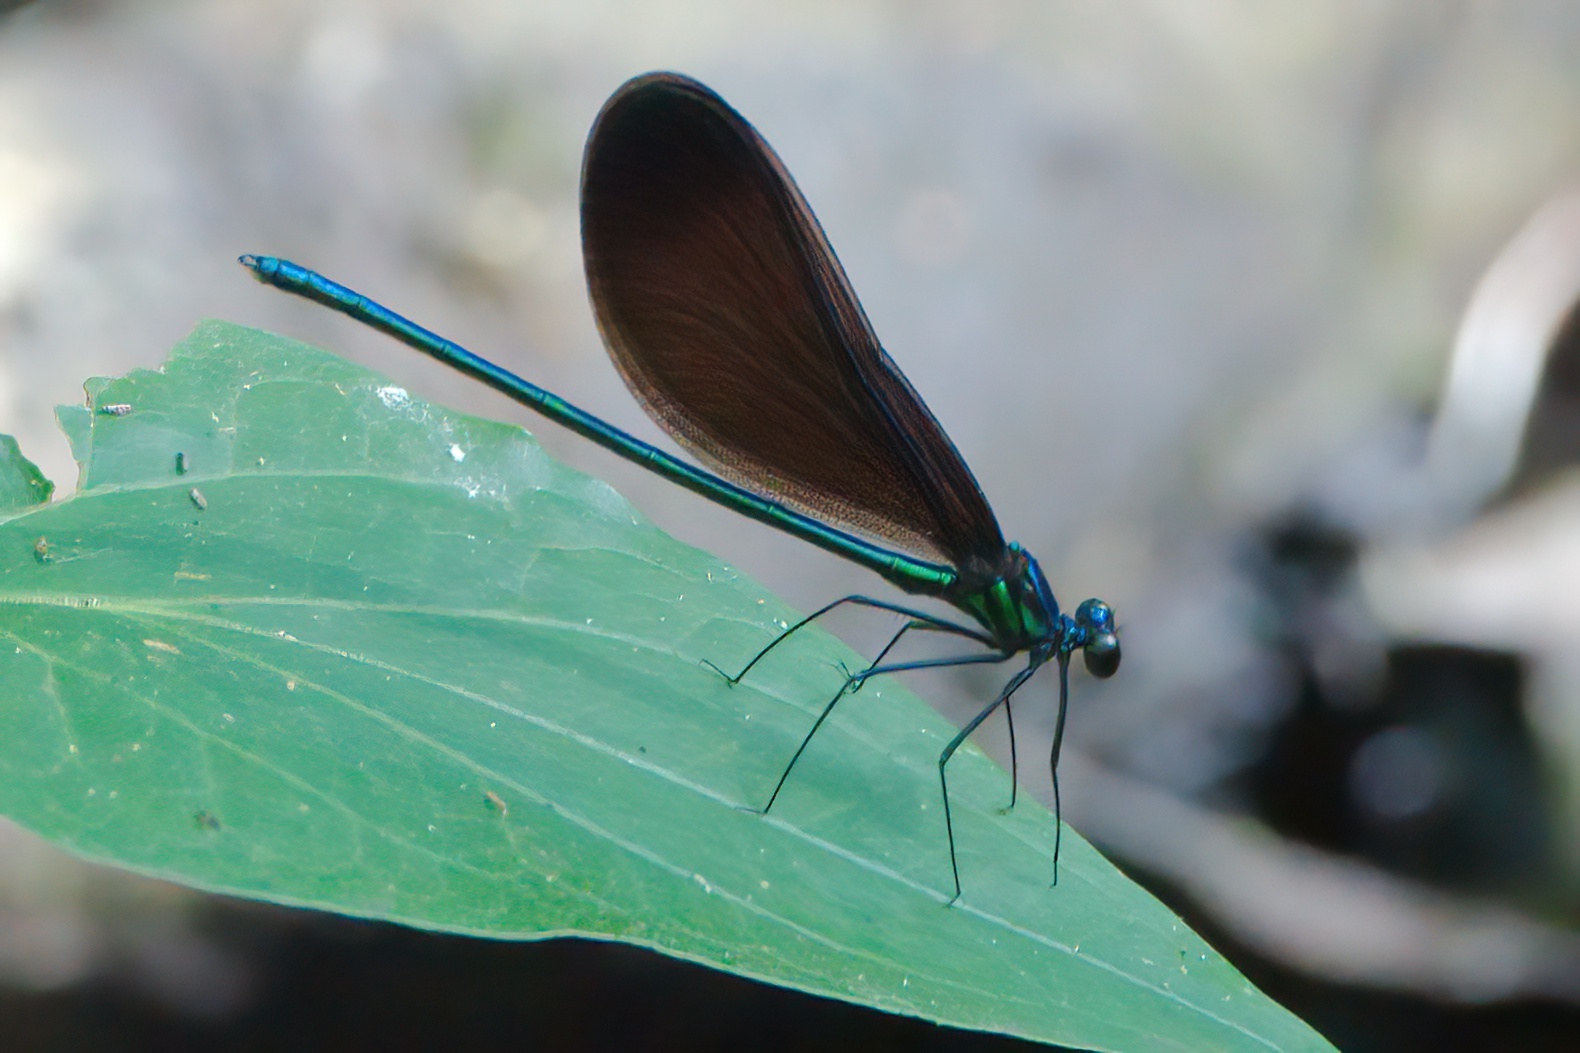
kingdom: Animalia
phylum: Arthropoda
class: Insecta
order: Odonata
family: Calopterygidae
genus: Calopteryx
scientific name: Calopteryx maculata
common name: Ebony jewelwing
